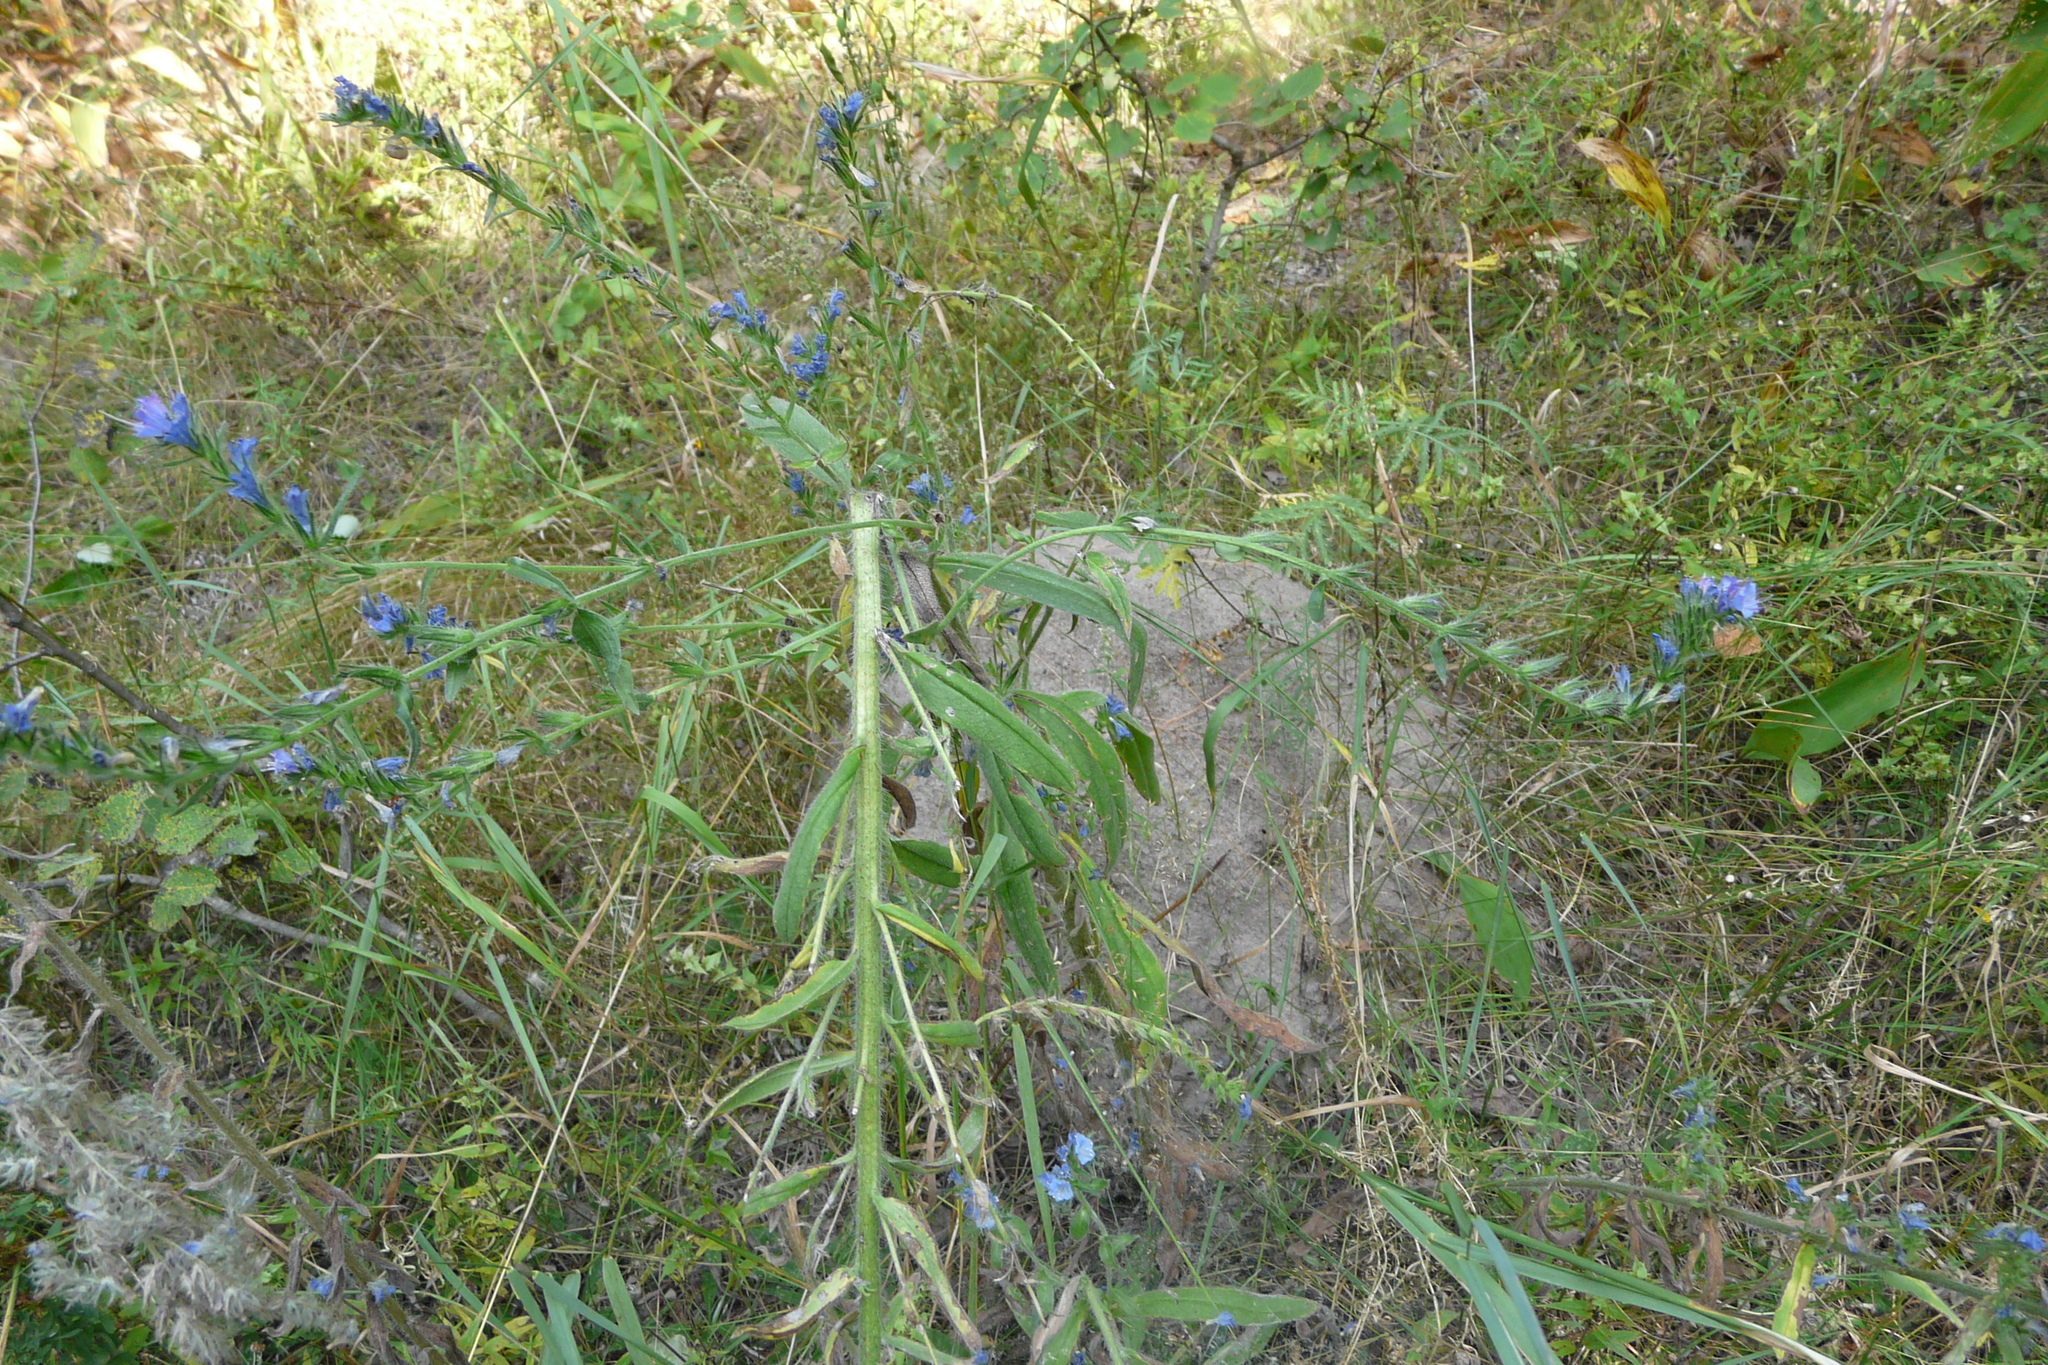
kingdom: Plantae
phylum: Tracheophyta
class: Magnoliopsida
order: Boraginales
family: Boraginaceae
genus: Echium
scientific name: Echium vulgare
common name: Common viper's bugloss
